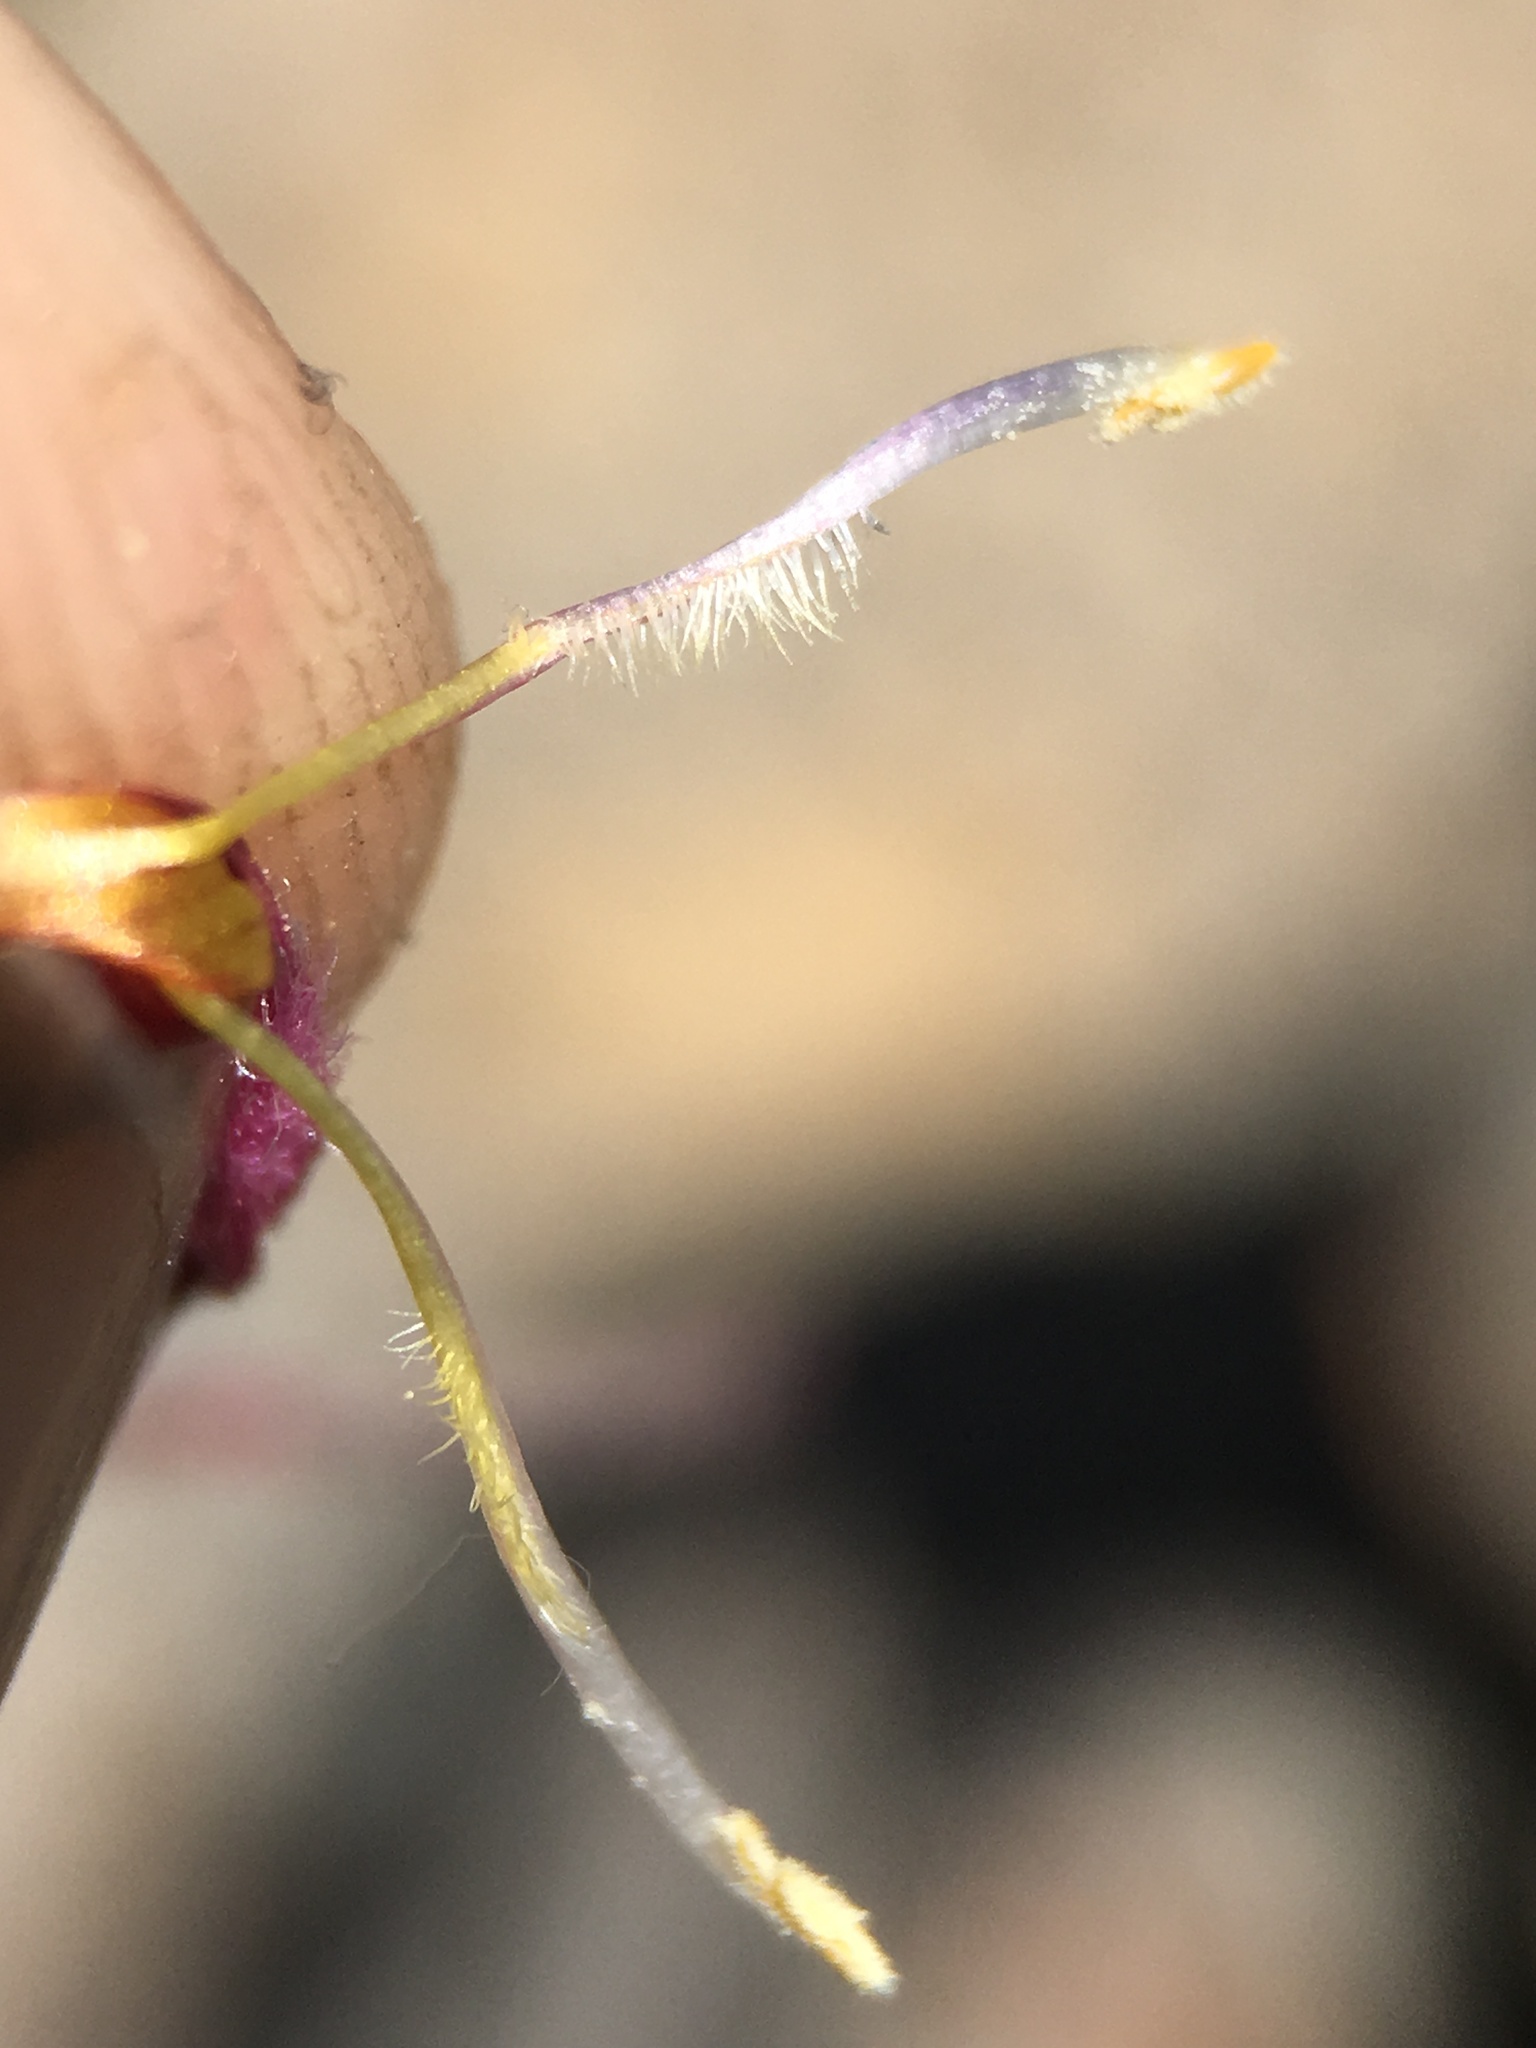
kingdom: Plantae
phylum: Tracheophyta
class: Magnoliopsida
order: Lamiales
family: Orobanchaceae
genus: Cordylanthus
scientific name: Cordylanthus kingii
